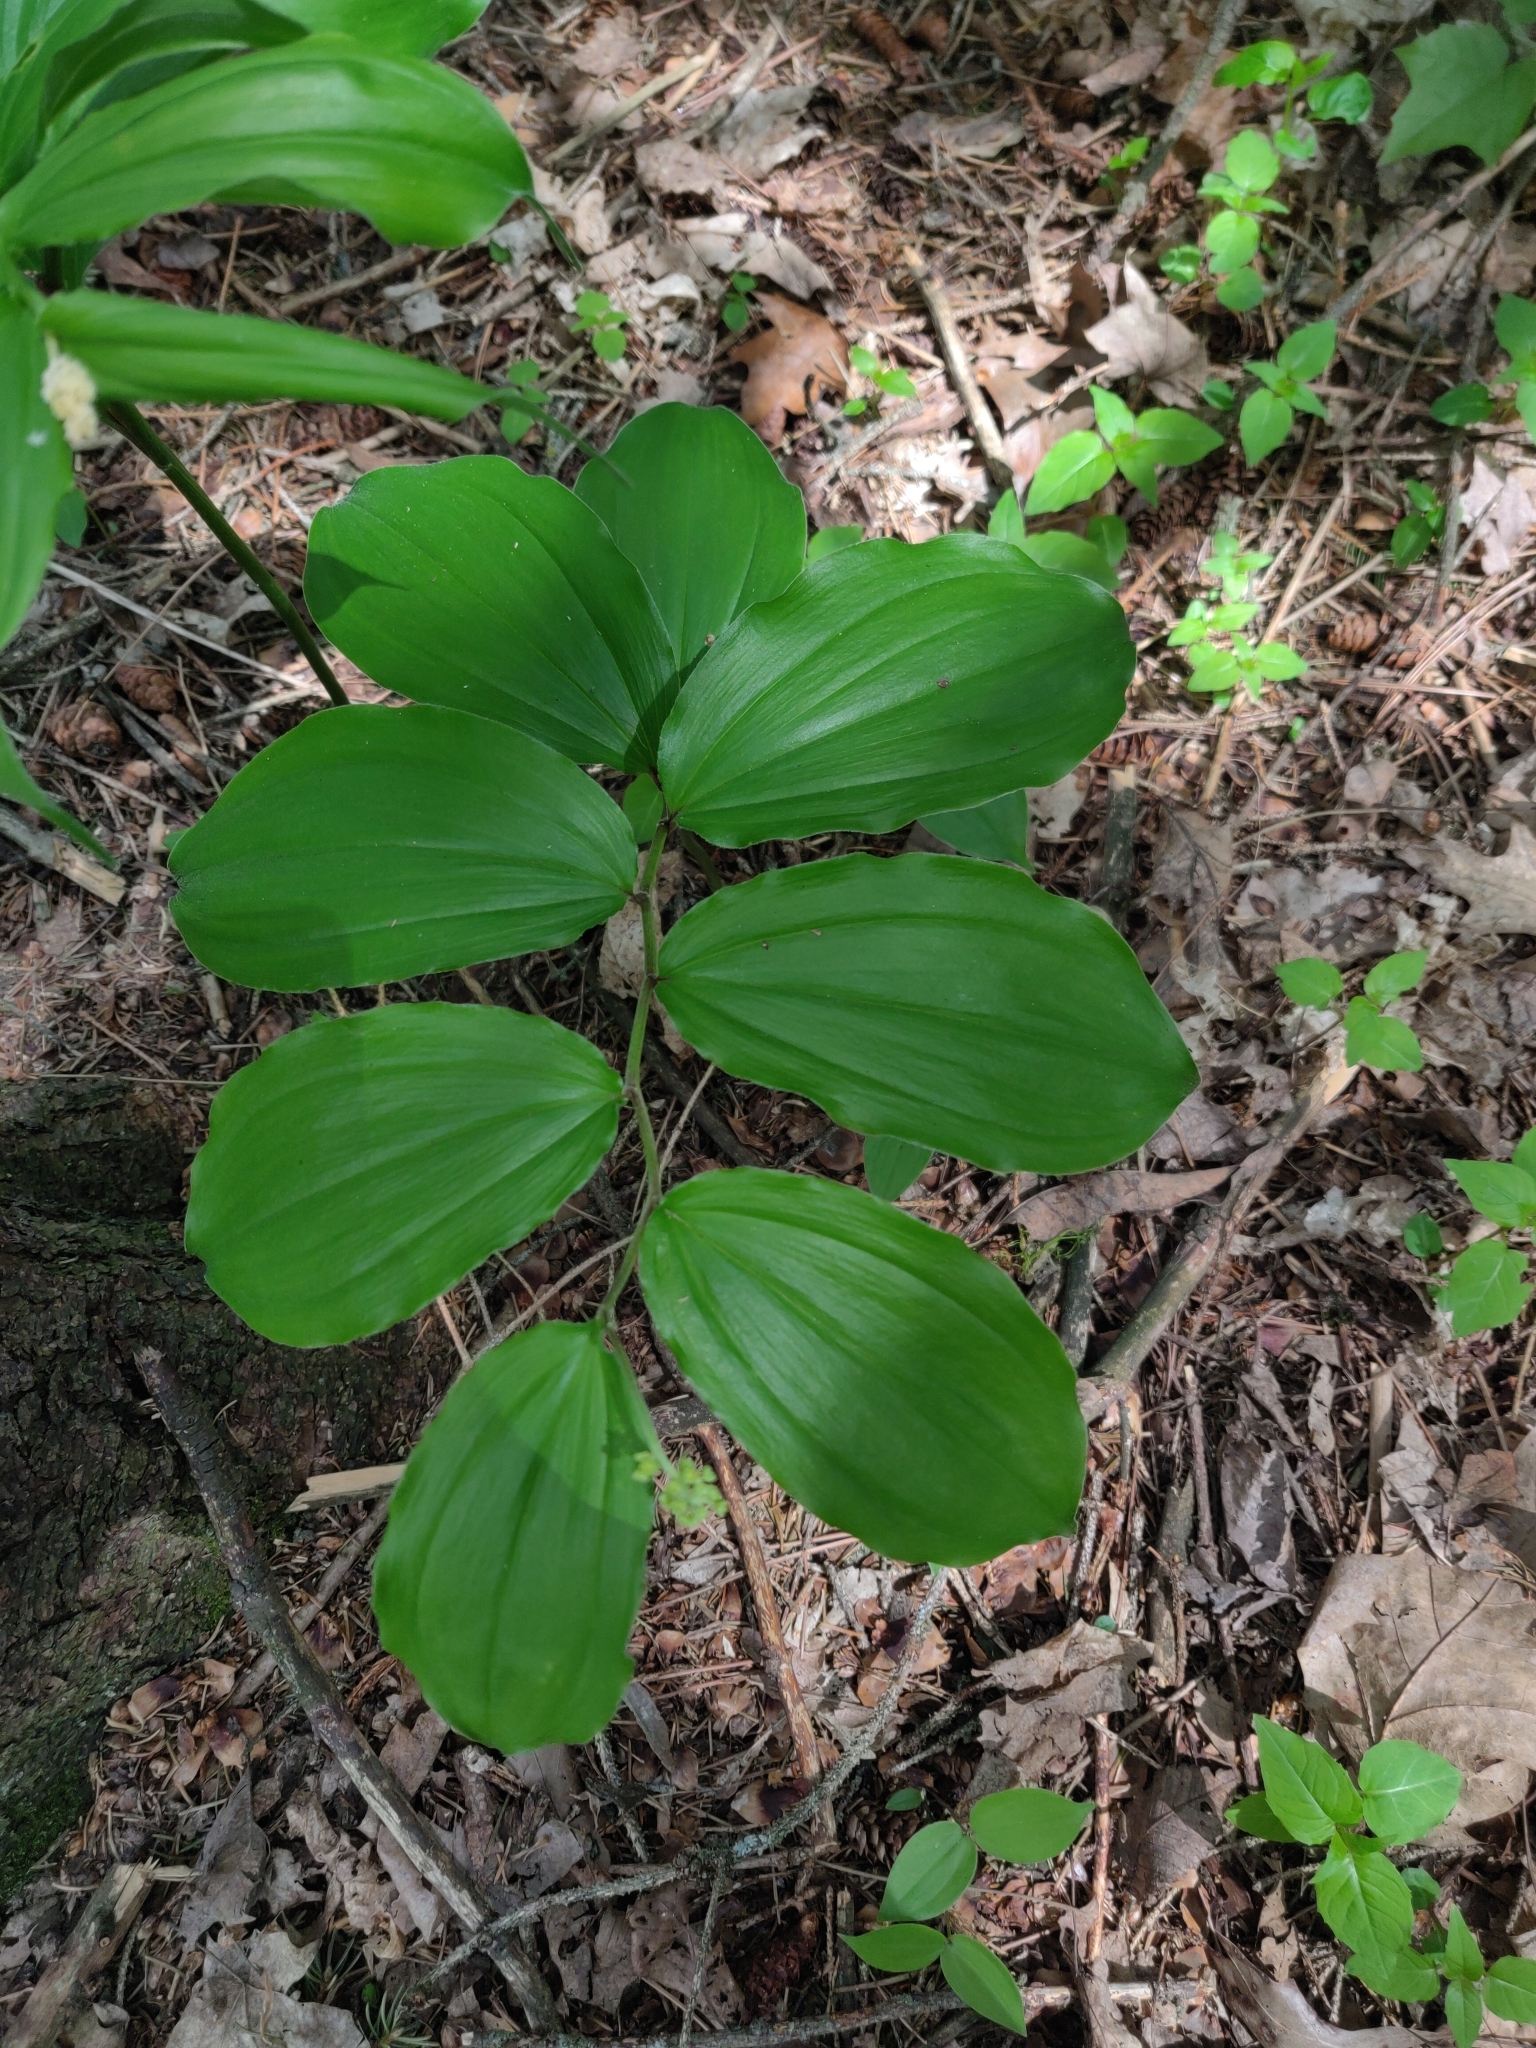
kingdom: Plantae
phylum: Tracheophyta
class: Liliopsida
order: Asparagales
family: Asparagaceae
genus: Maianthemum
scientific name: Maianthemum racemosum
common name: False spikenard
